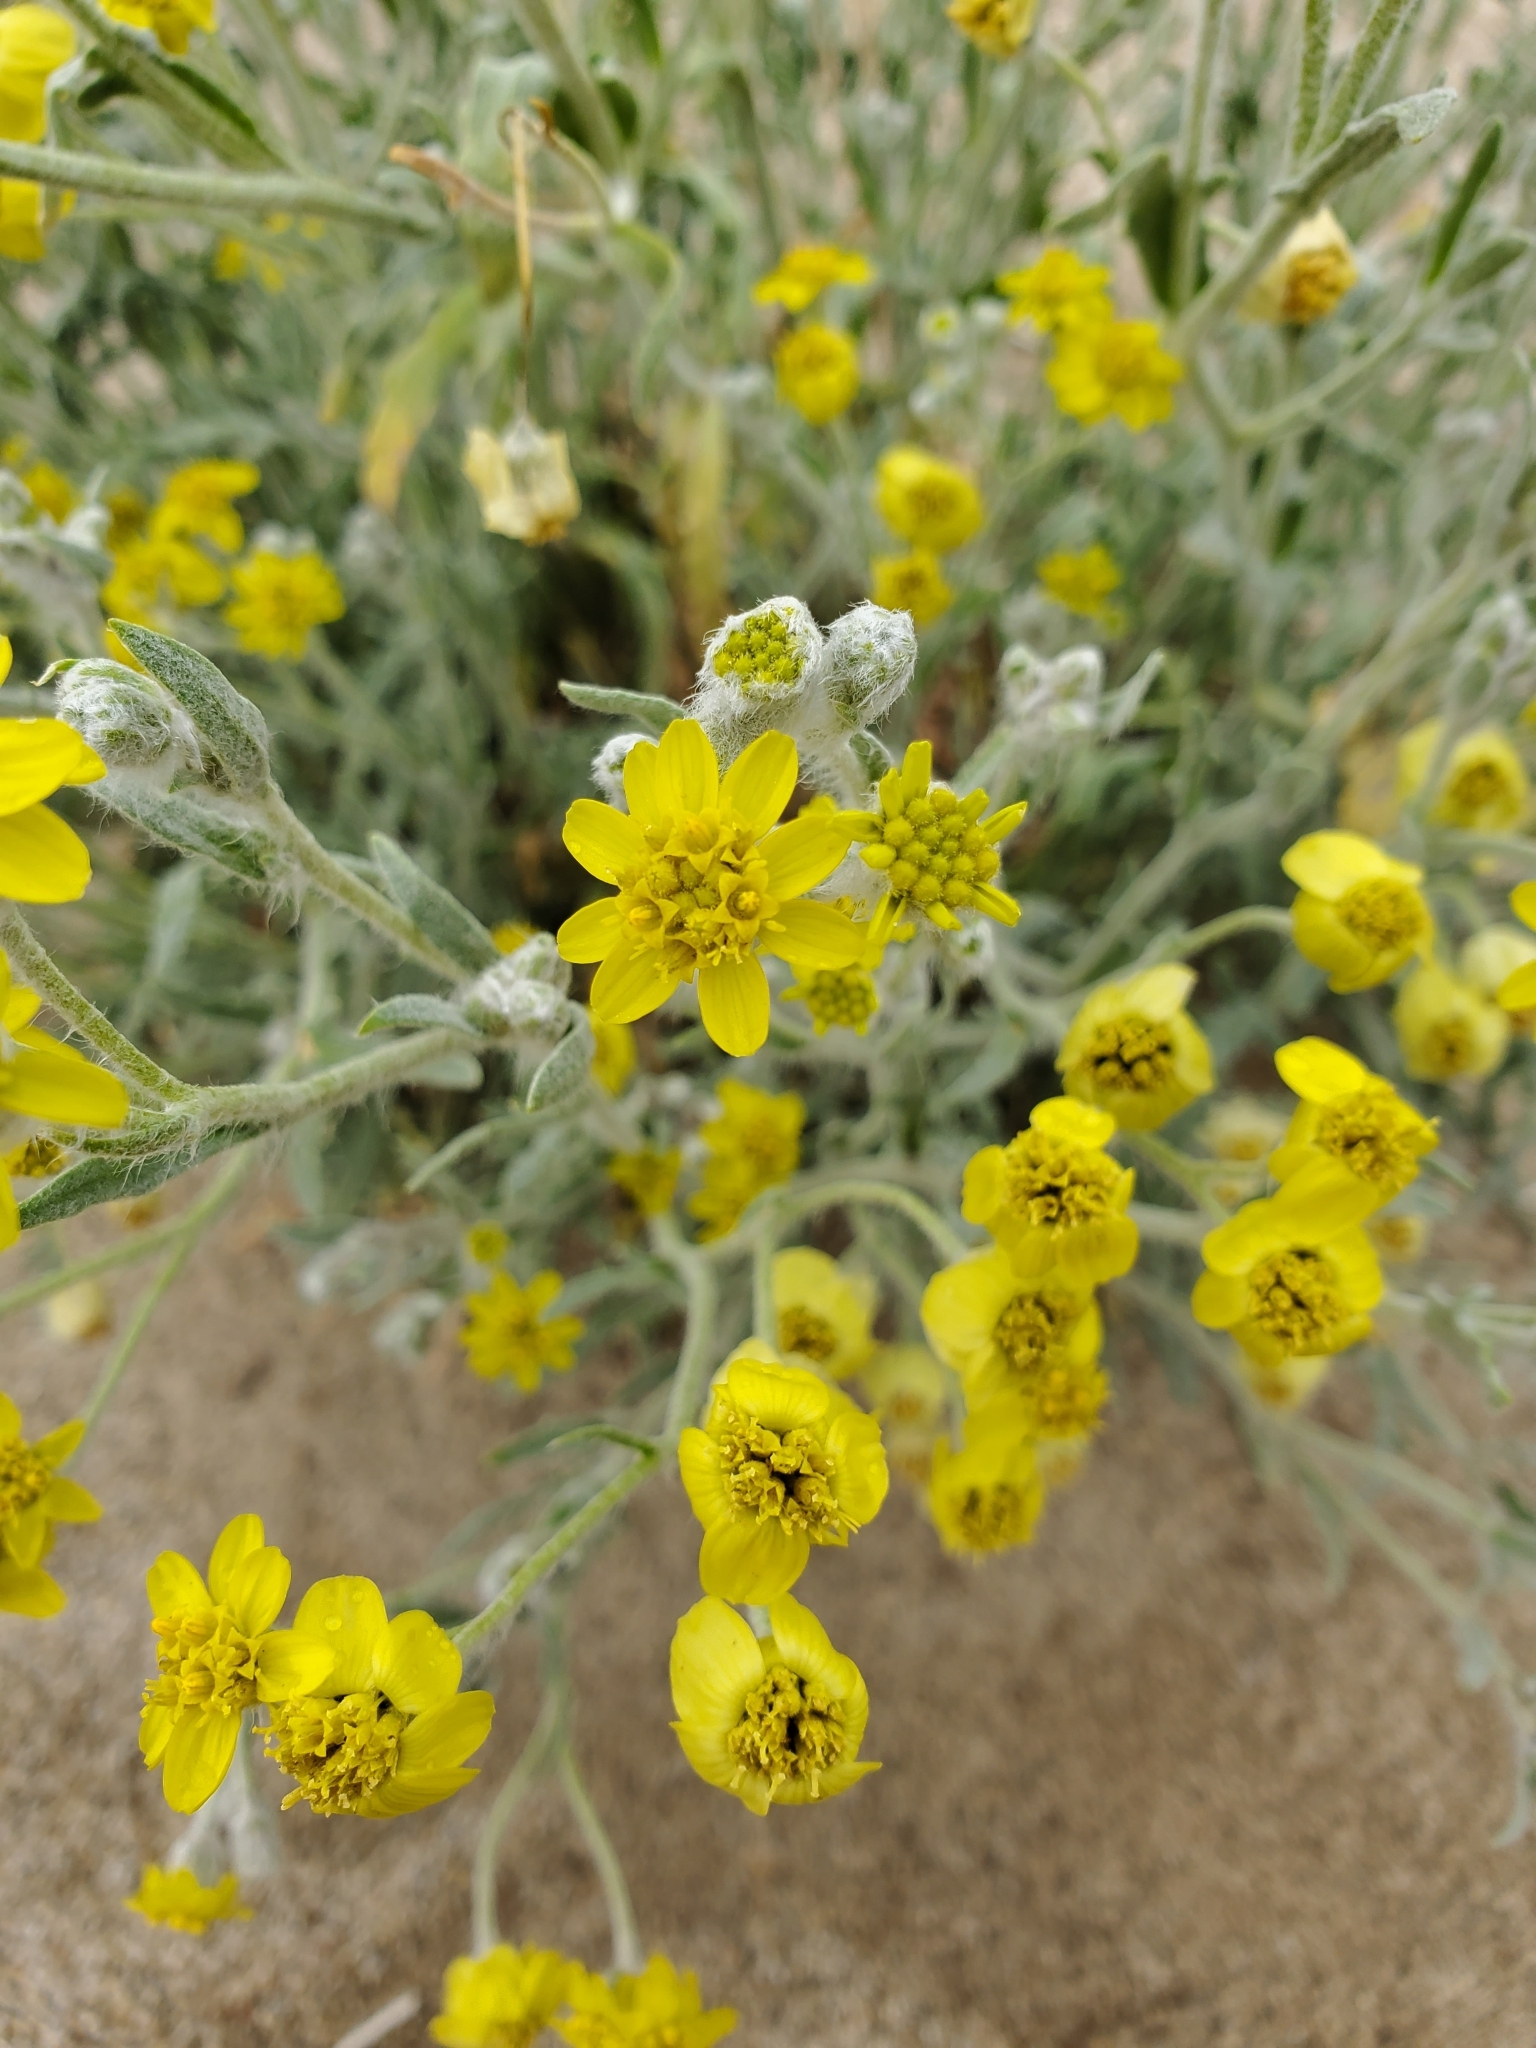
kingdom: Plantae
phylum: Tracheophyta
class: Magnoliopsida
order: Asterales
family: Asteraceae
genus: Baileya
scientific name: Baileya pauciradiata
